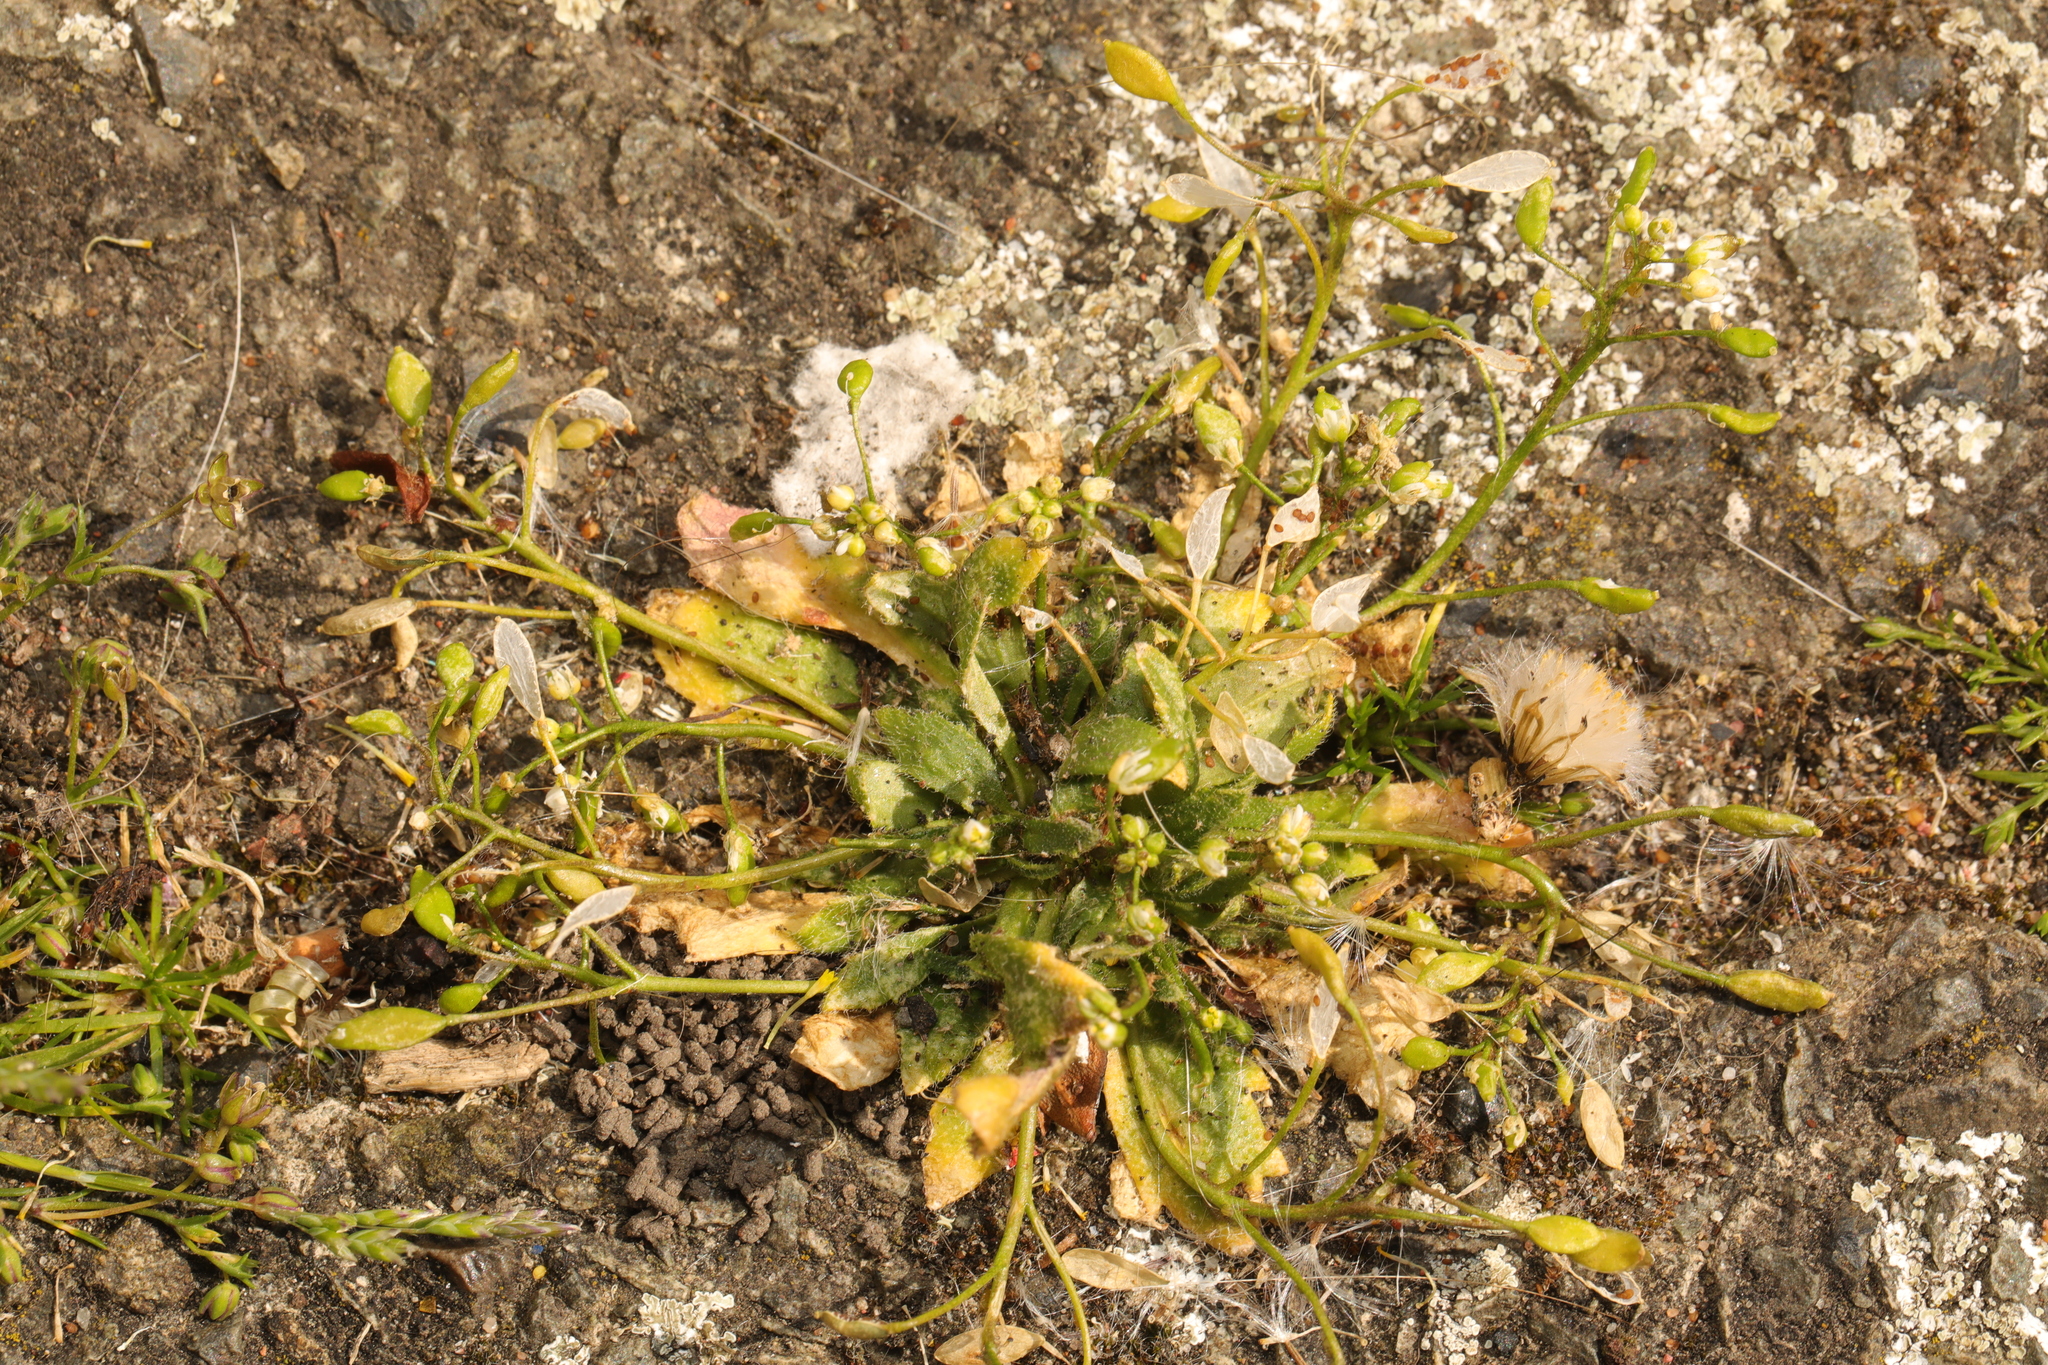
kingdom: Plantae
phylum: Tracheophyta
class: Magnoliopsida
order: Brassicales
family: Brassicaceae
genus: Draba
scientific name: Draba verna
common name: Spring draba
